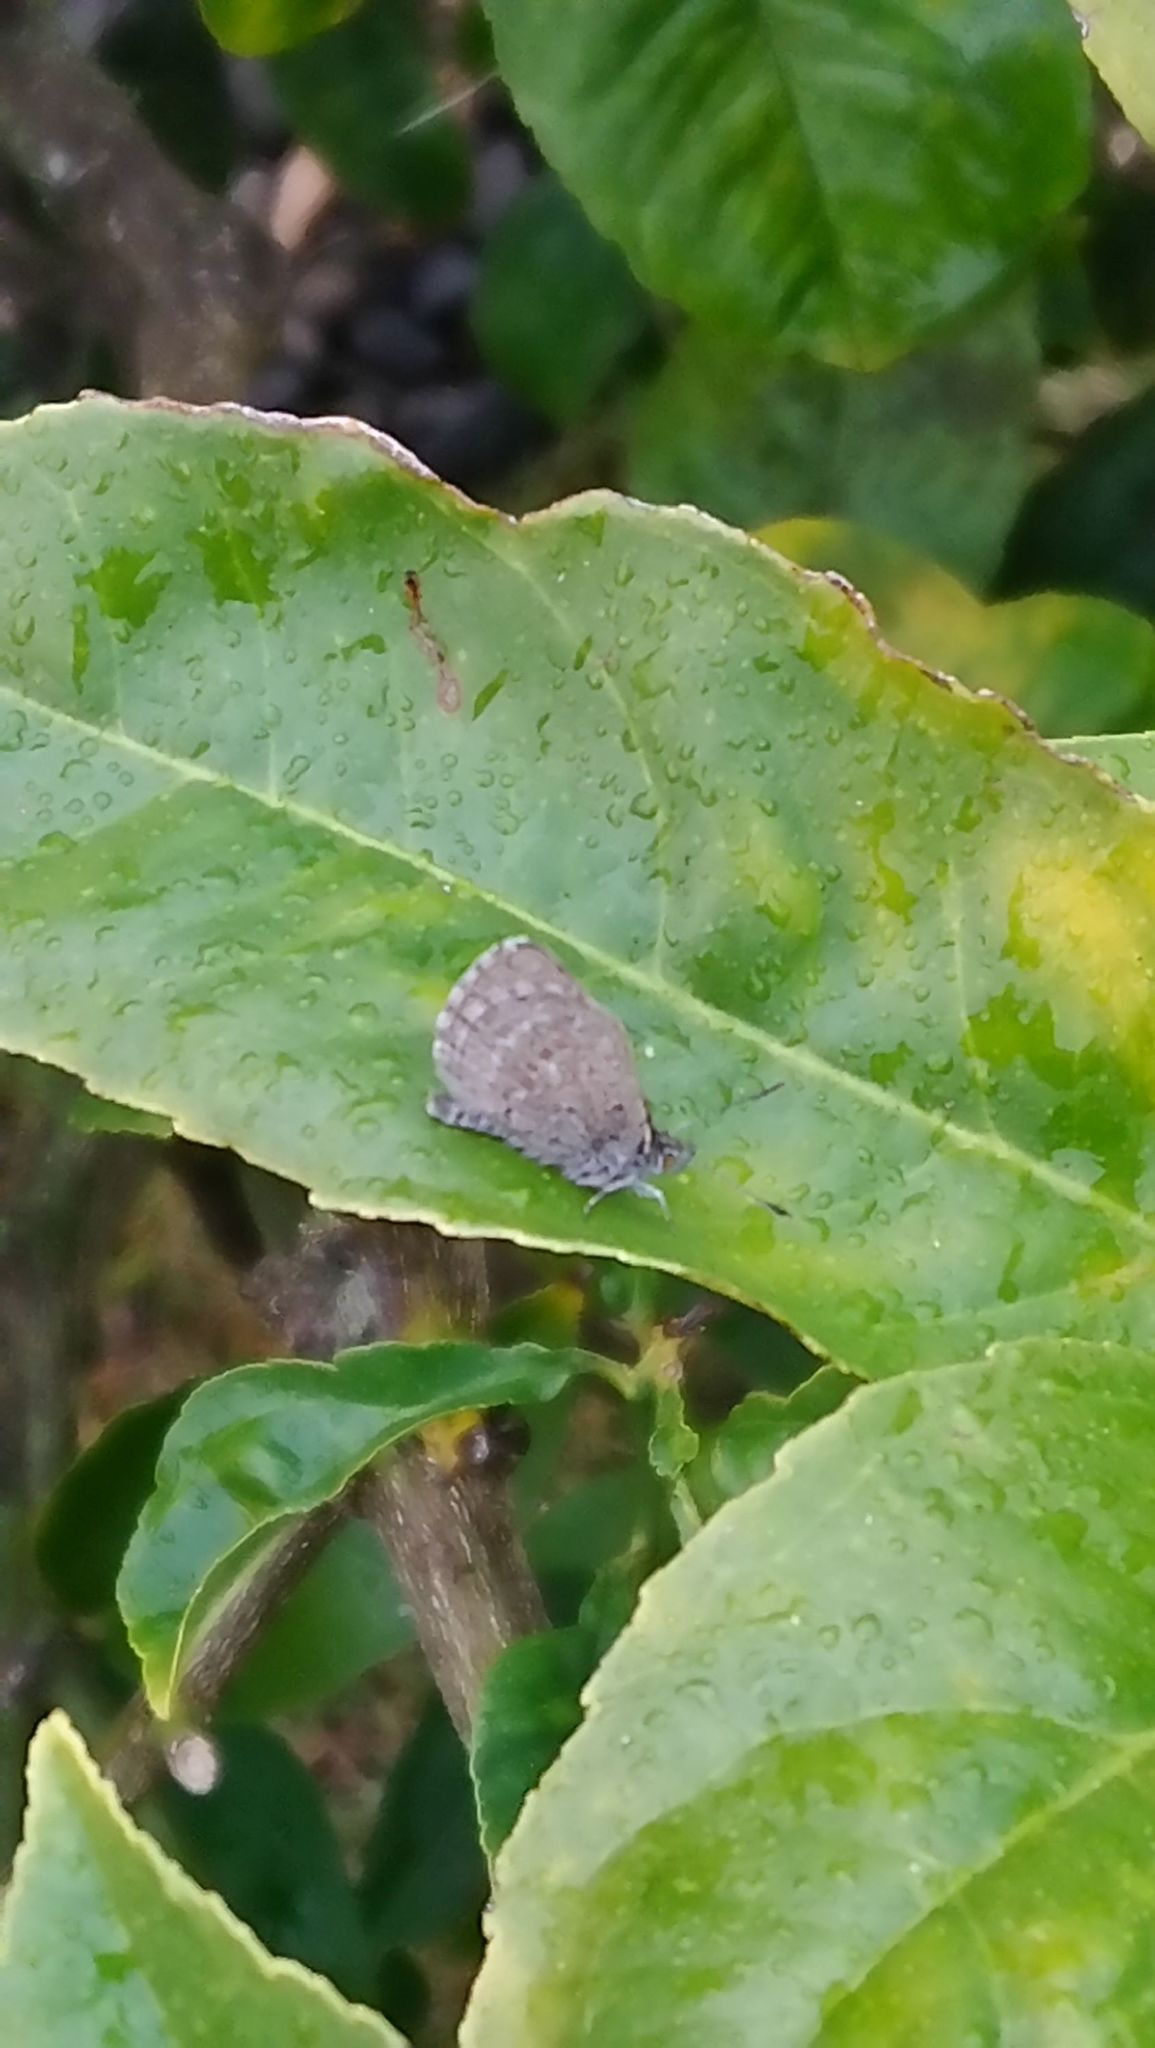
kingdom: Animalia
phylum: Arthropoda
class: Insecta
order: Lepidoptera
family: Lycaenidae
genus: Zizina
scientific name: Zizina labradus
